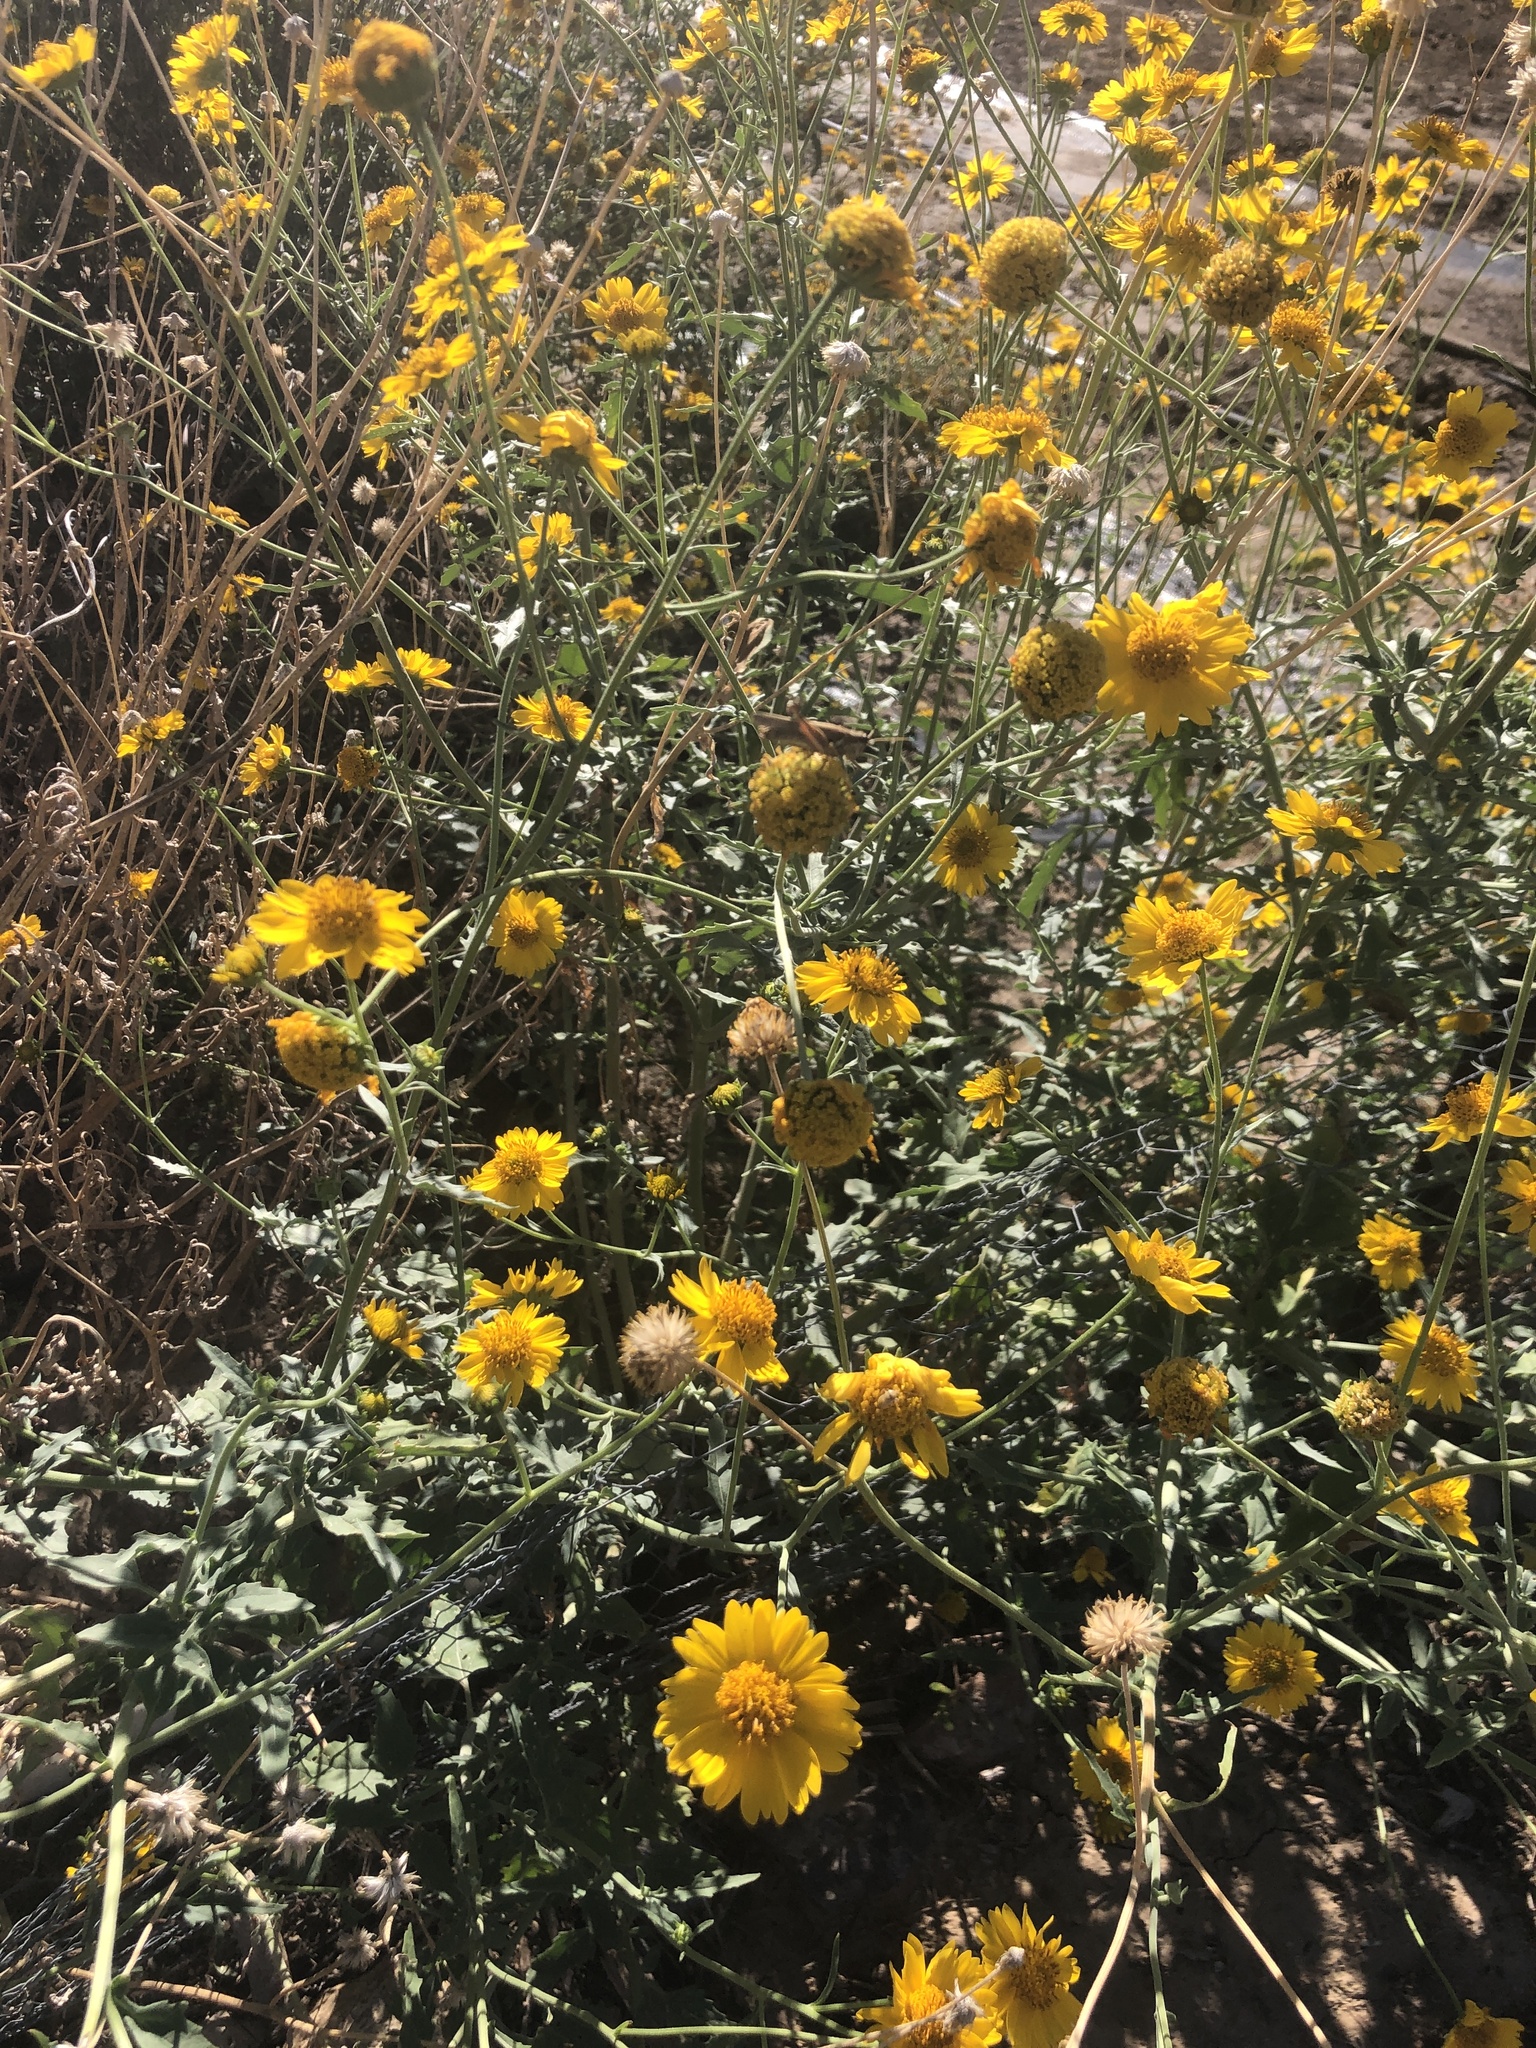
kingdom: Plantae
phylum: Tracheophyta
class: Magnoliopsida
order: Asterales
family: Asteraceae
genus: Verbesina
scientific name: Verbesina encelioides
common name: Golden crownbeard
